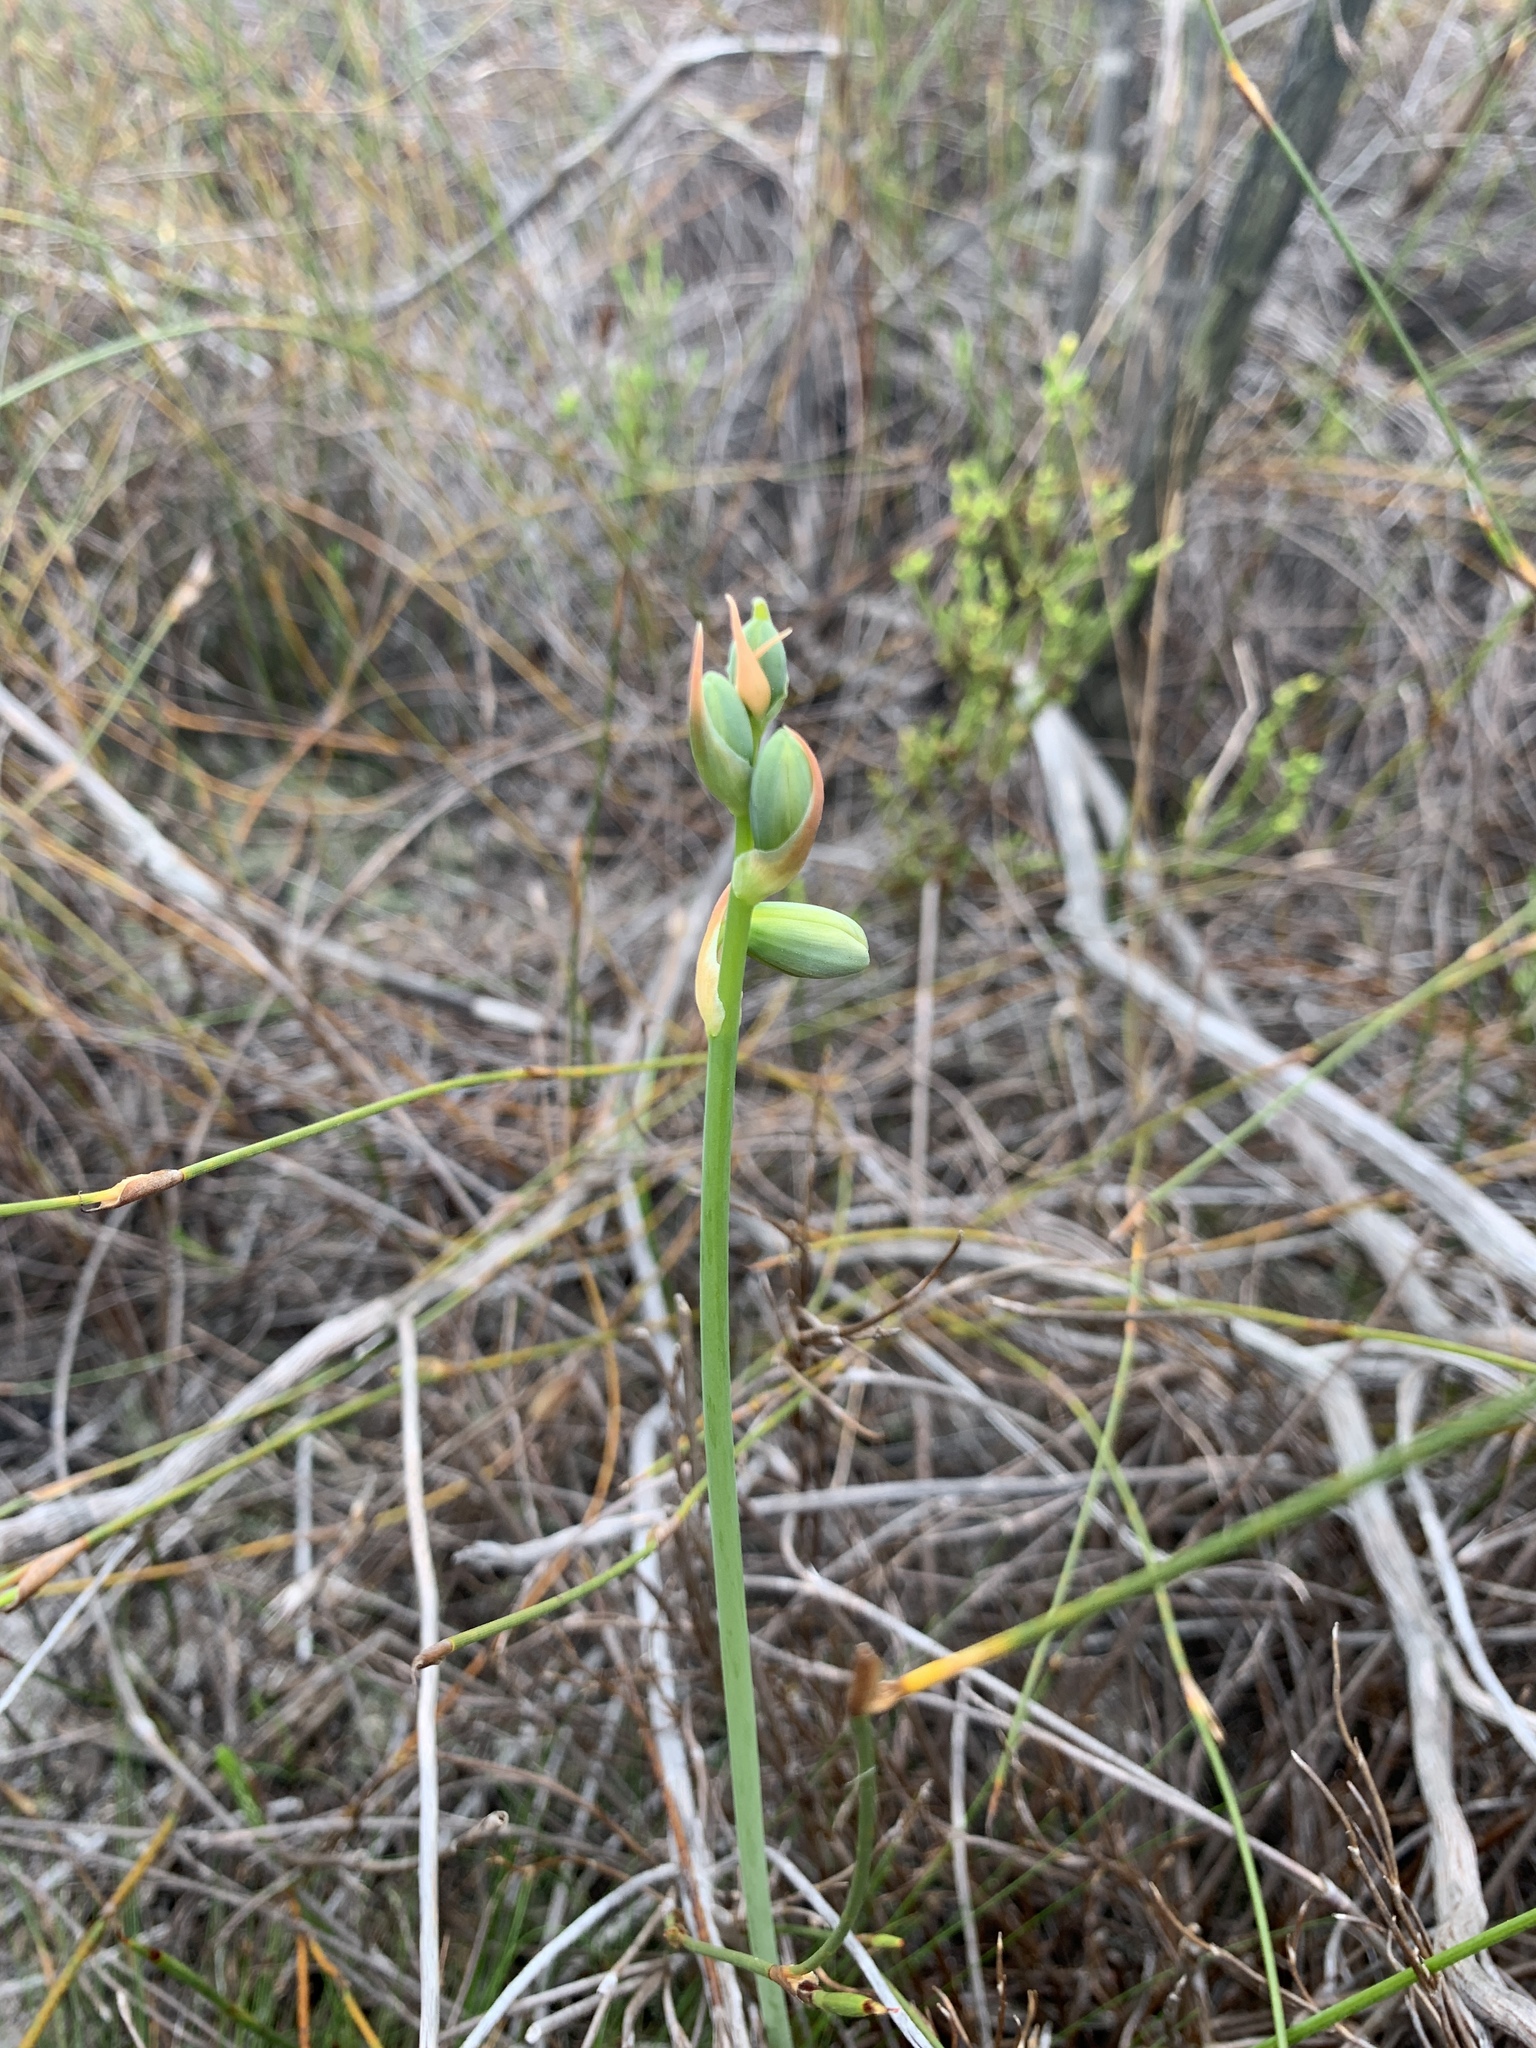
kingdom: Plantae
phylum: Tracheophyta
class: Liliopsida
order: Asparagales
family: Asparagaceae
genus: Albuca
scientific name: Albuca cooperi
